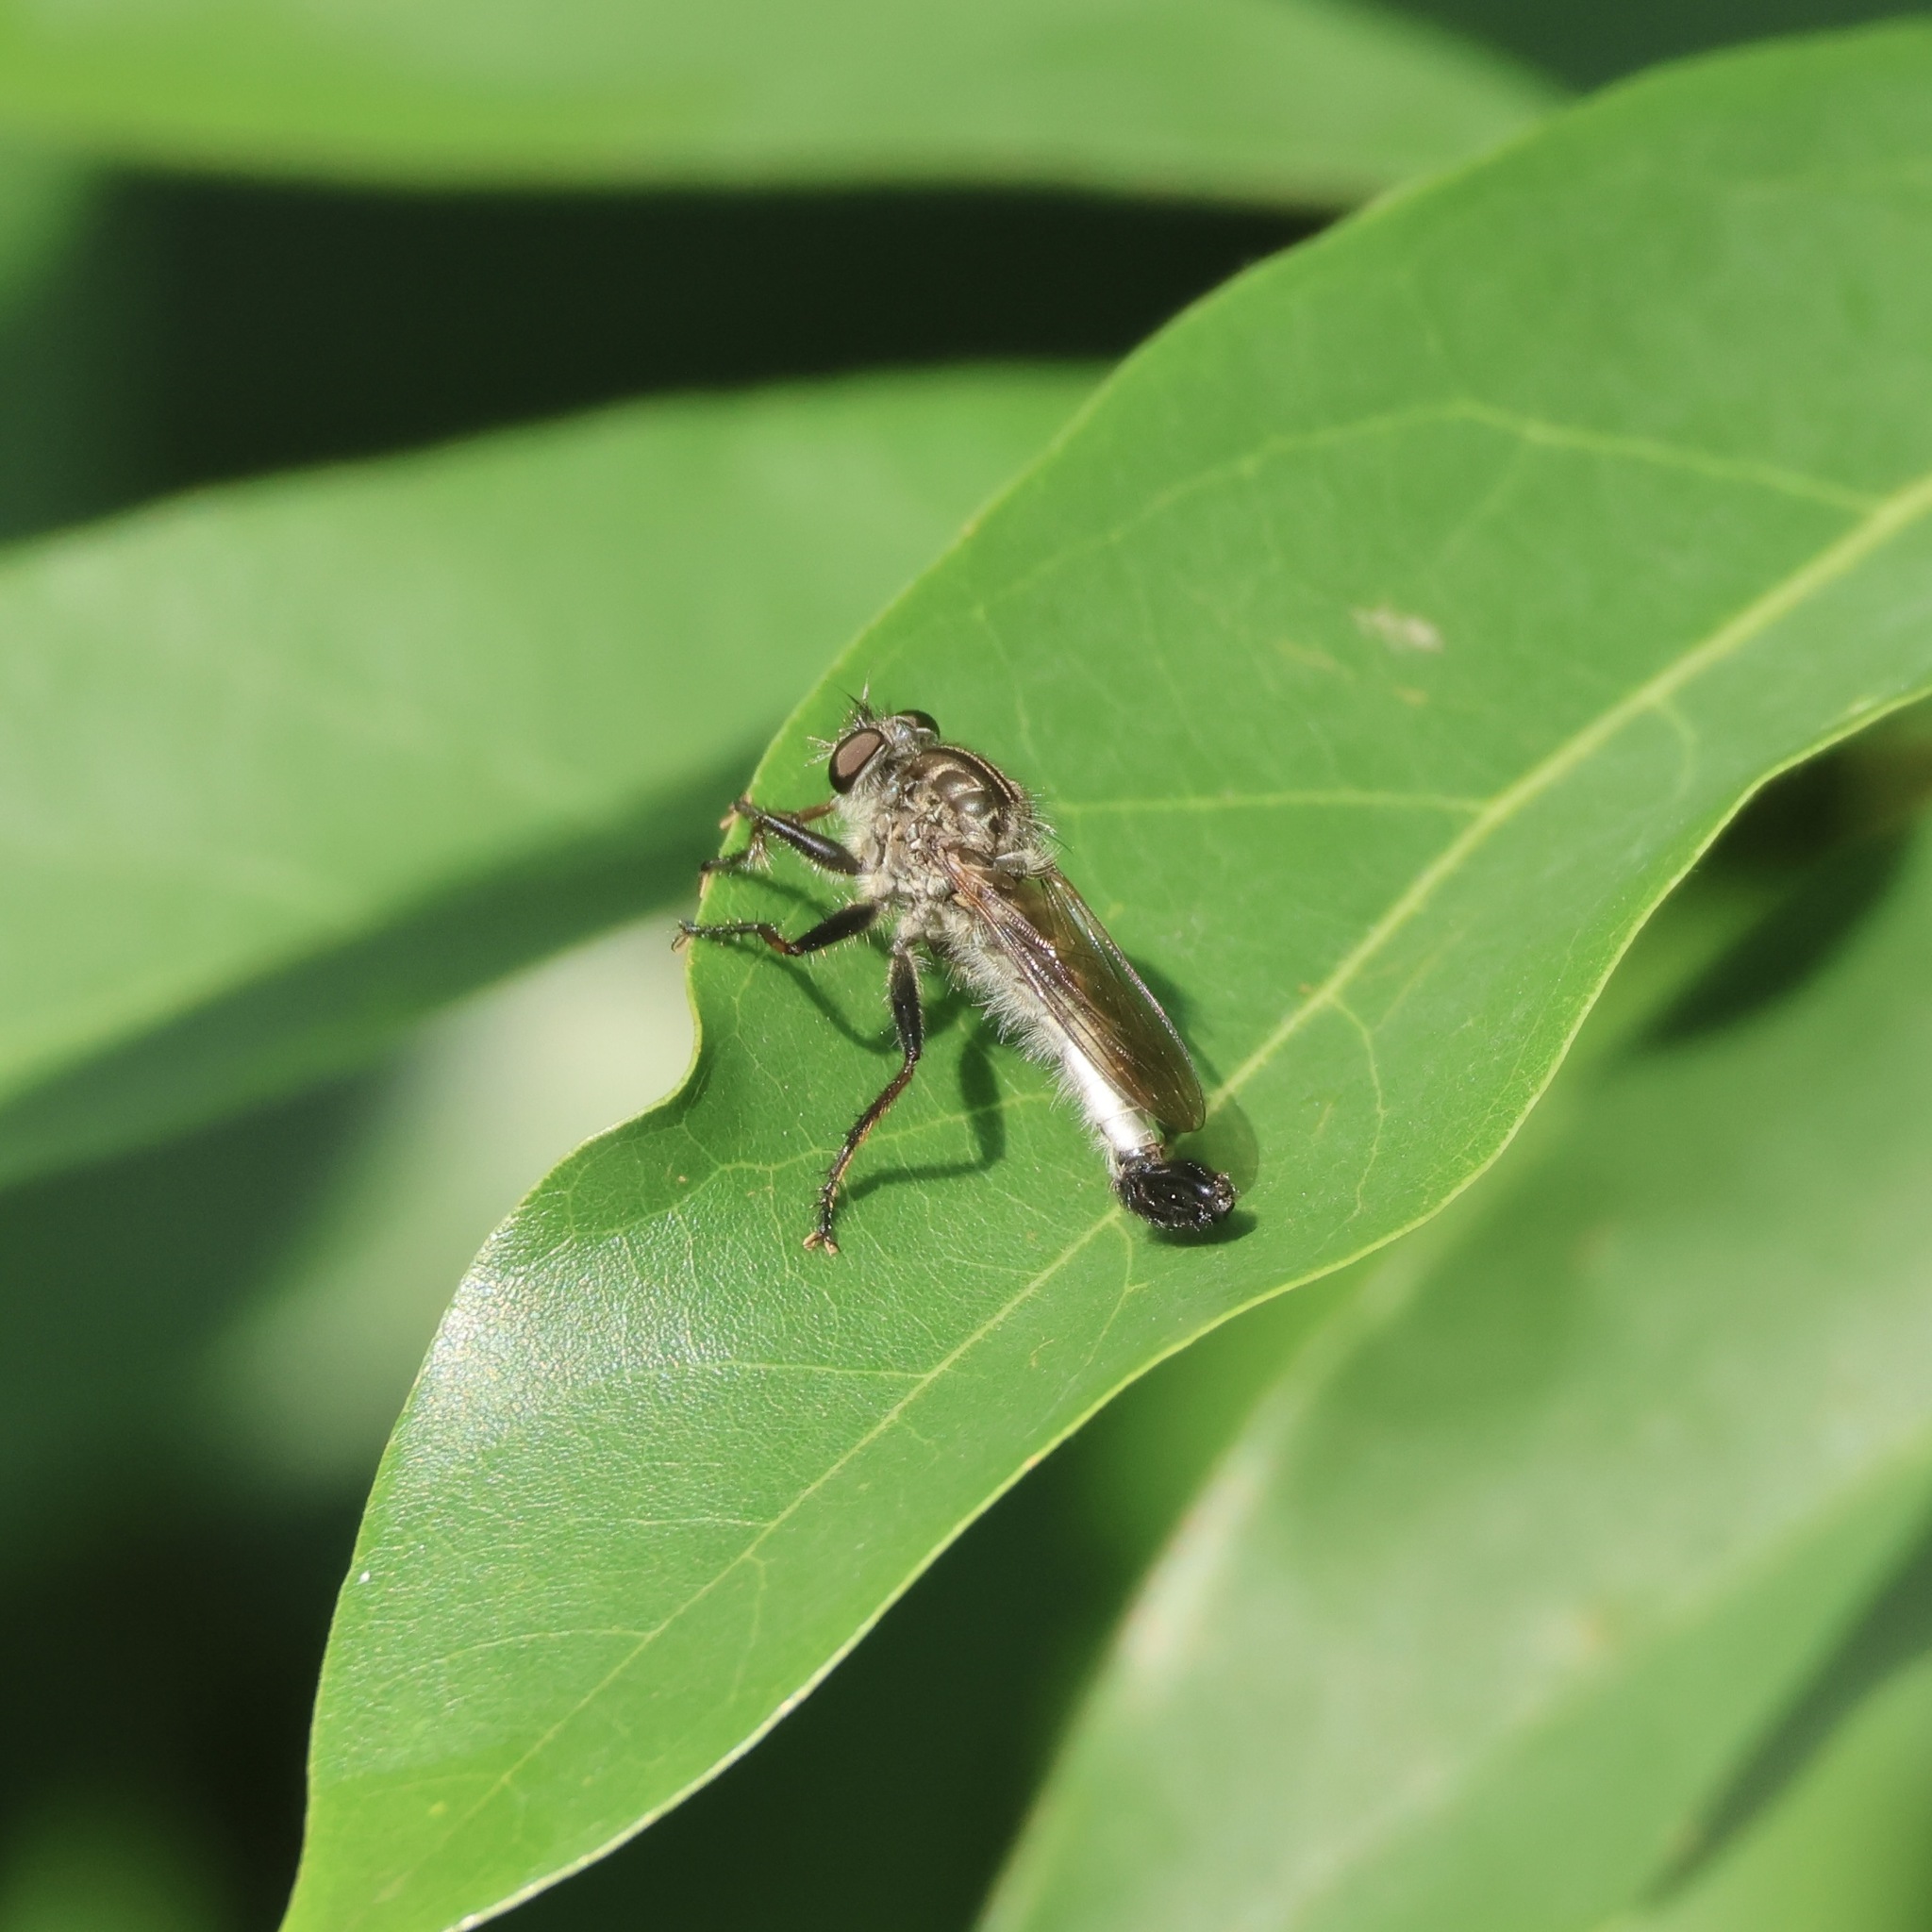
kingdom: Animalia
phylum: Arthropoda
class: Insecta
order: Diptera
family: Asilidae
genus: Efferia
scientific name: Efferia aestuans
